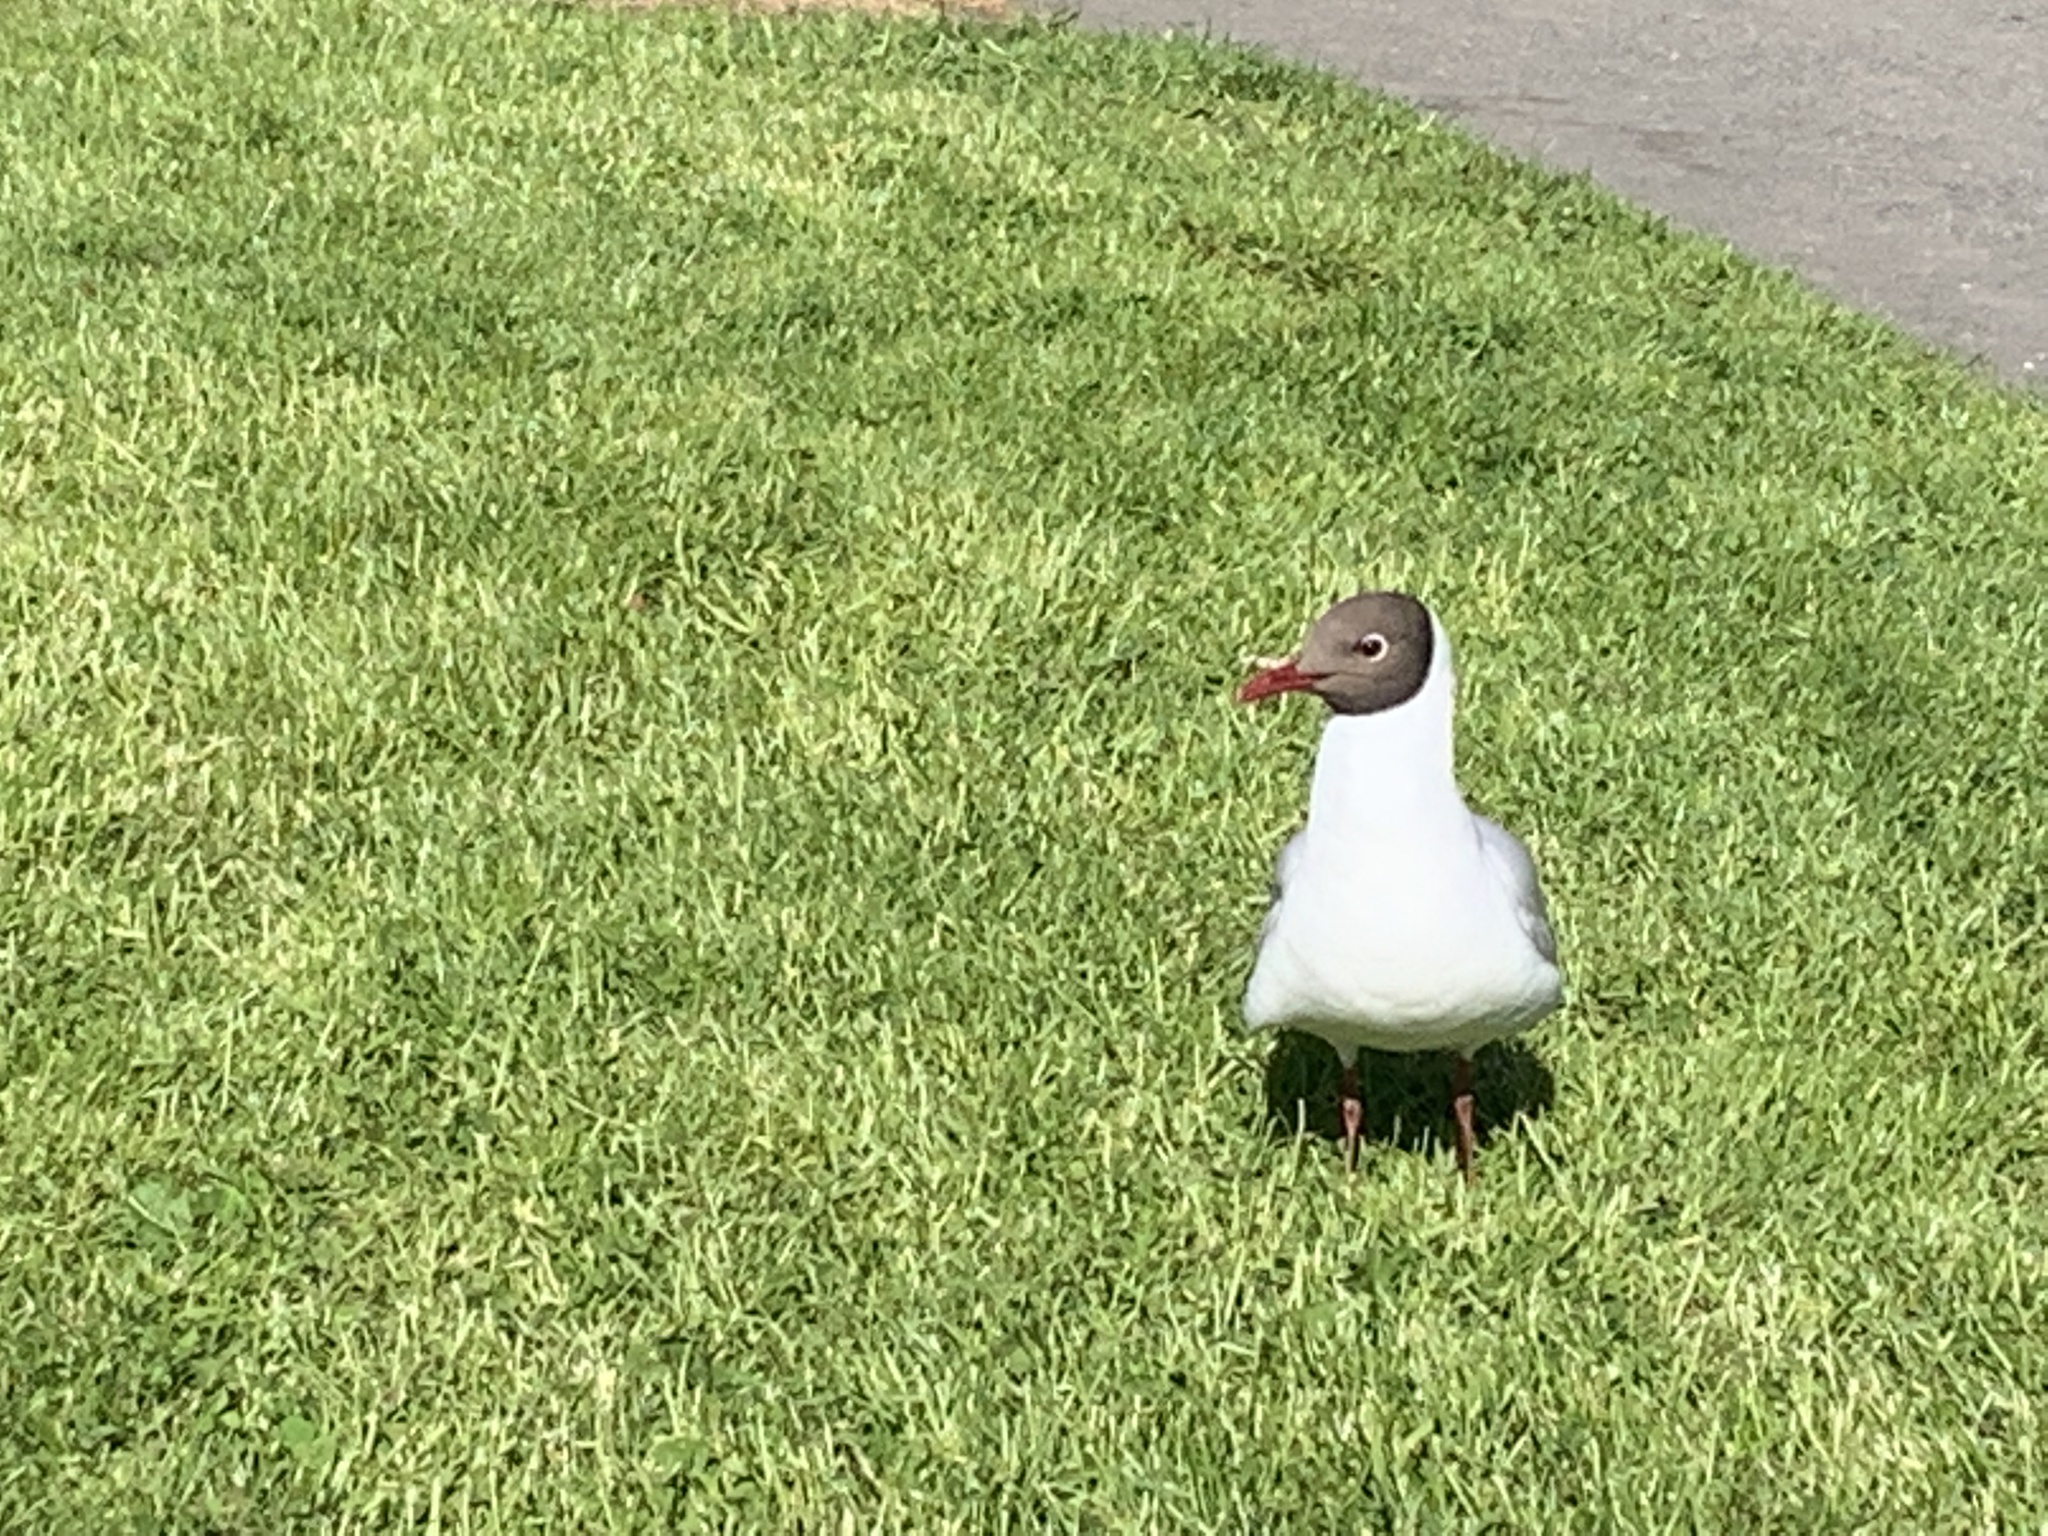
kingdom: Animalia
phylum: Chordata
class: Aves
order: Charadriiformes
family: Laridae
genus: Chroicocephalus
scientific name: Chroicocephalus ridibundus
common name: Black-headed gull
